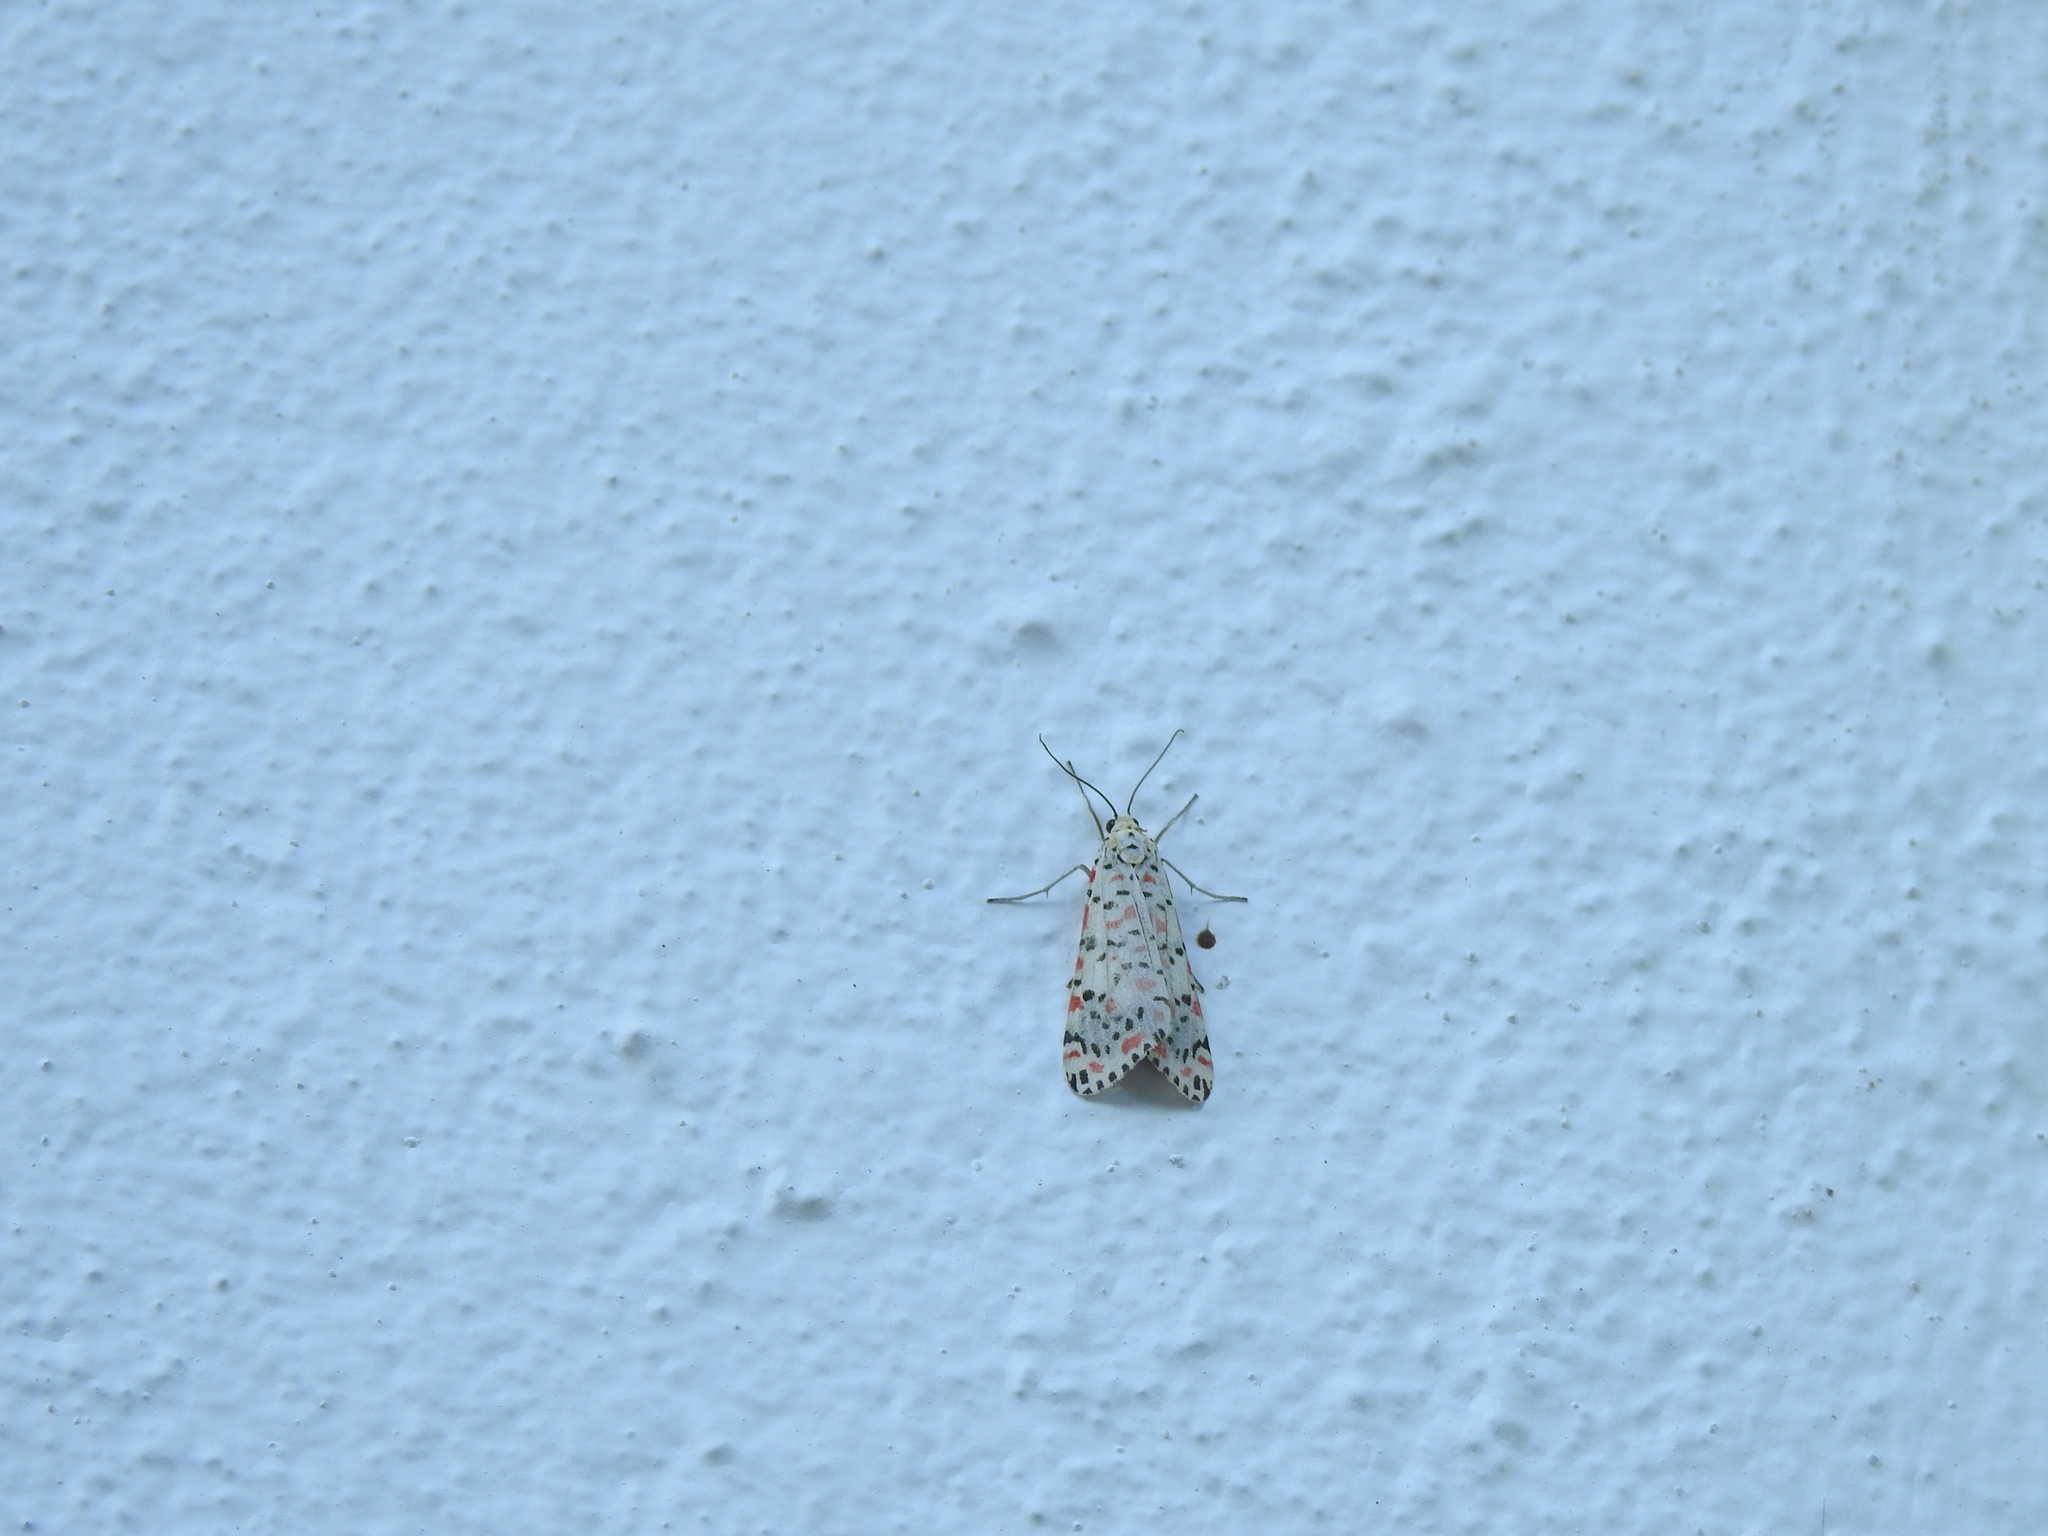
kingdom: Animalia
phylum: Arthropoda
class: Insecta
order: Lepidoptera
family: Erebidae
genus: Utetheisa
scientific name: Utetheisa pulchella
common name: Crimson speckled
